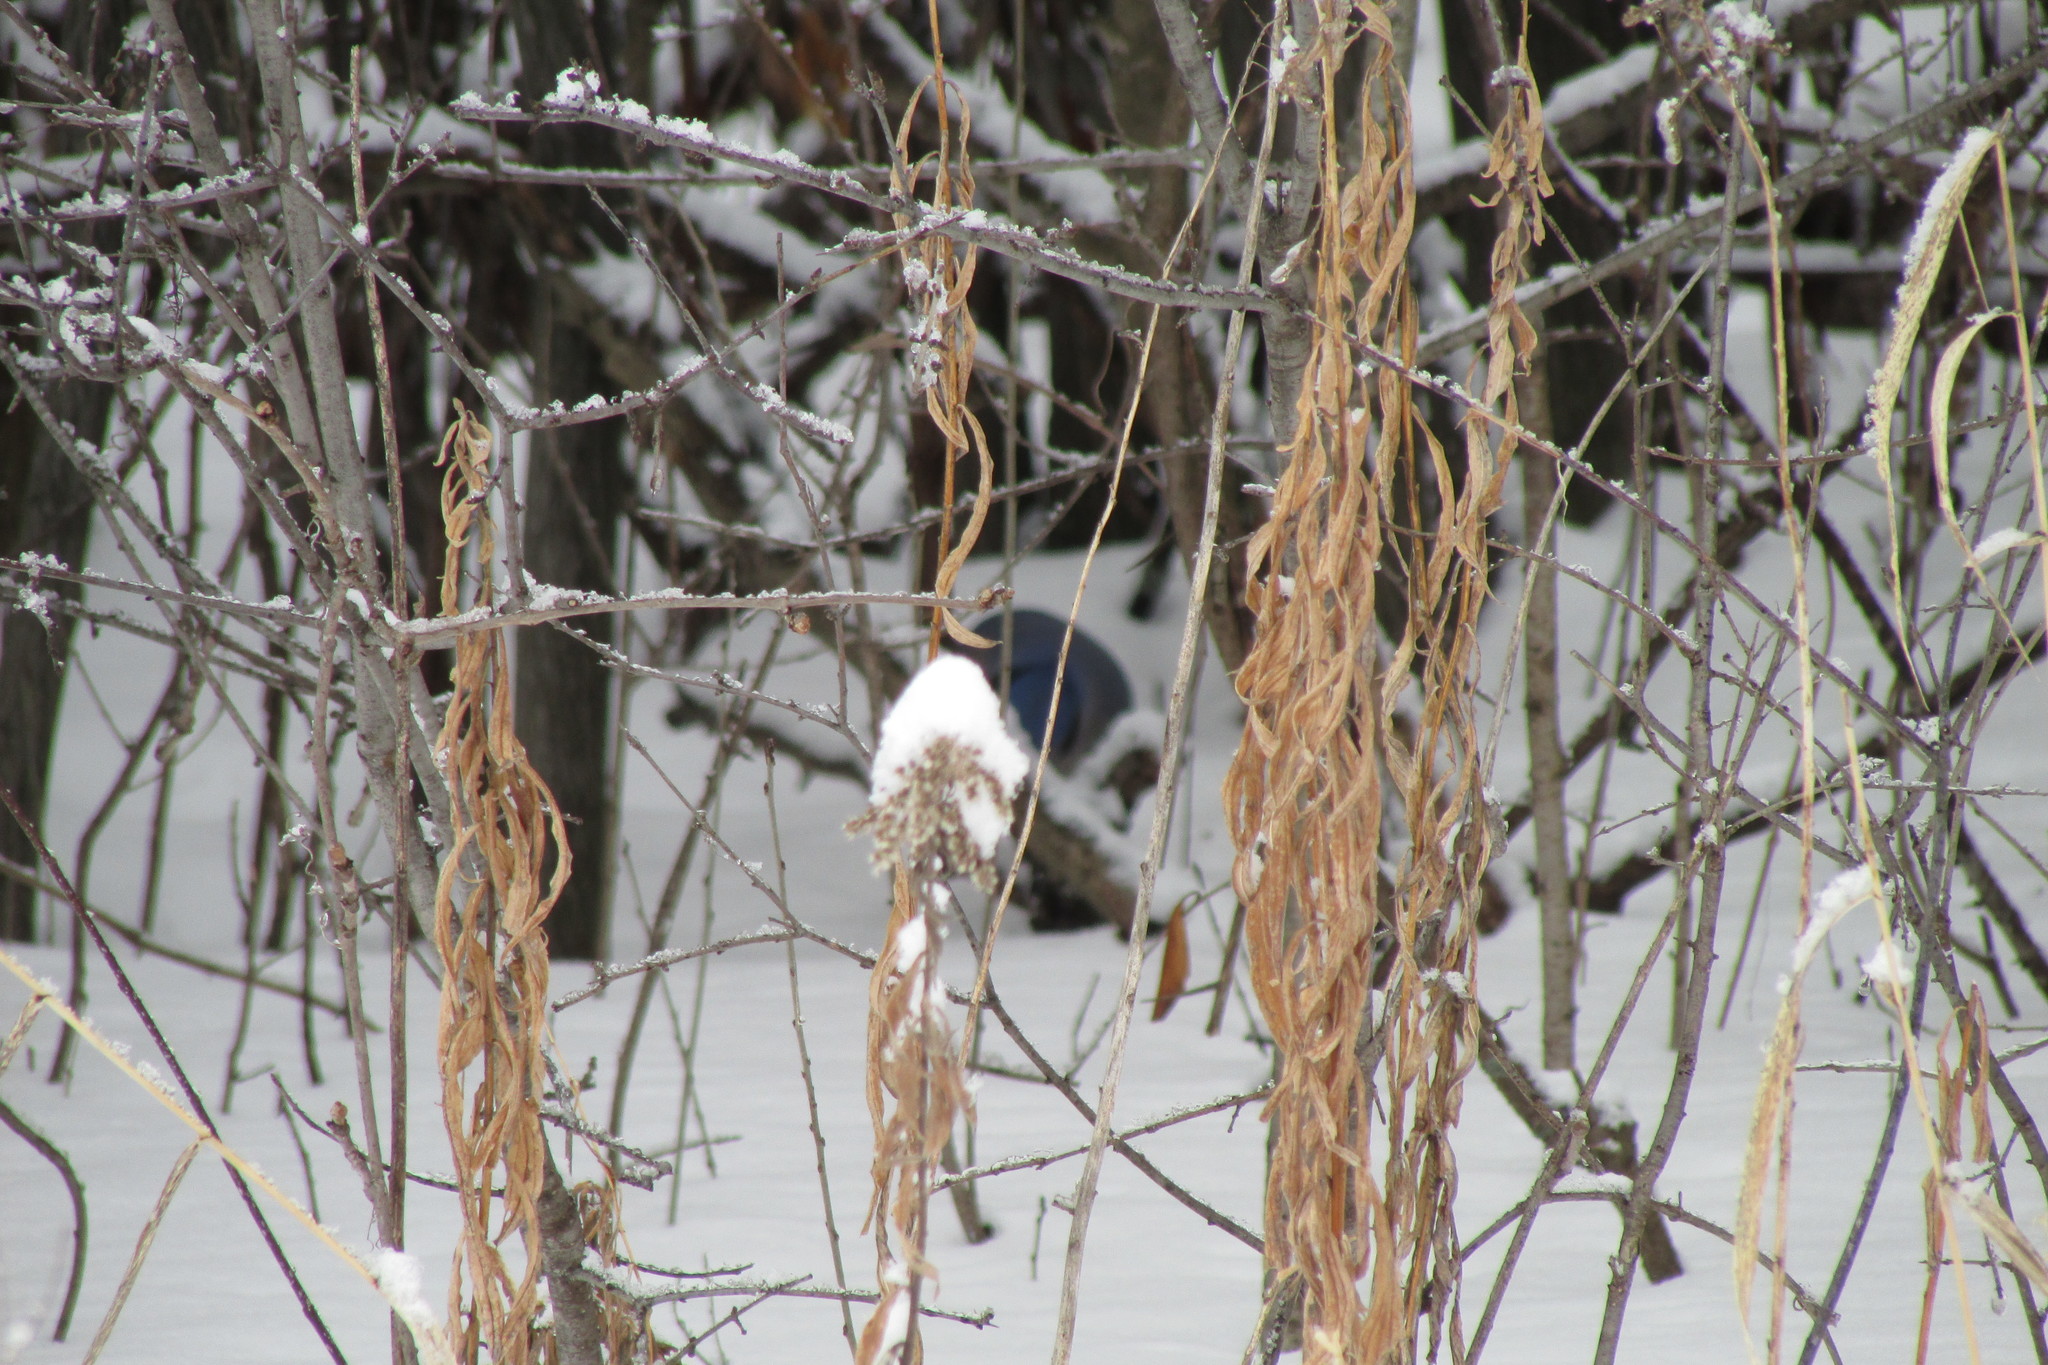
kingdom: Animalia
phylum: Chordata
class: Aves
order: Passeriformes
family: Corvidae
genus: Cyanocitta
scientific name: Cyanocitta cristata
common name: Blue jay
